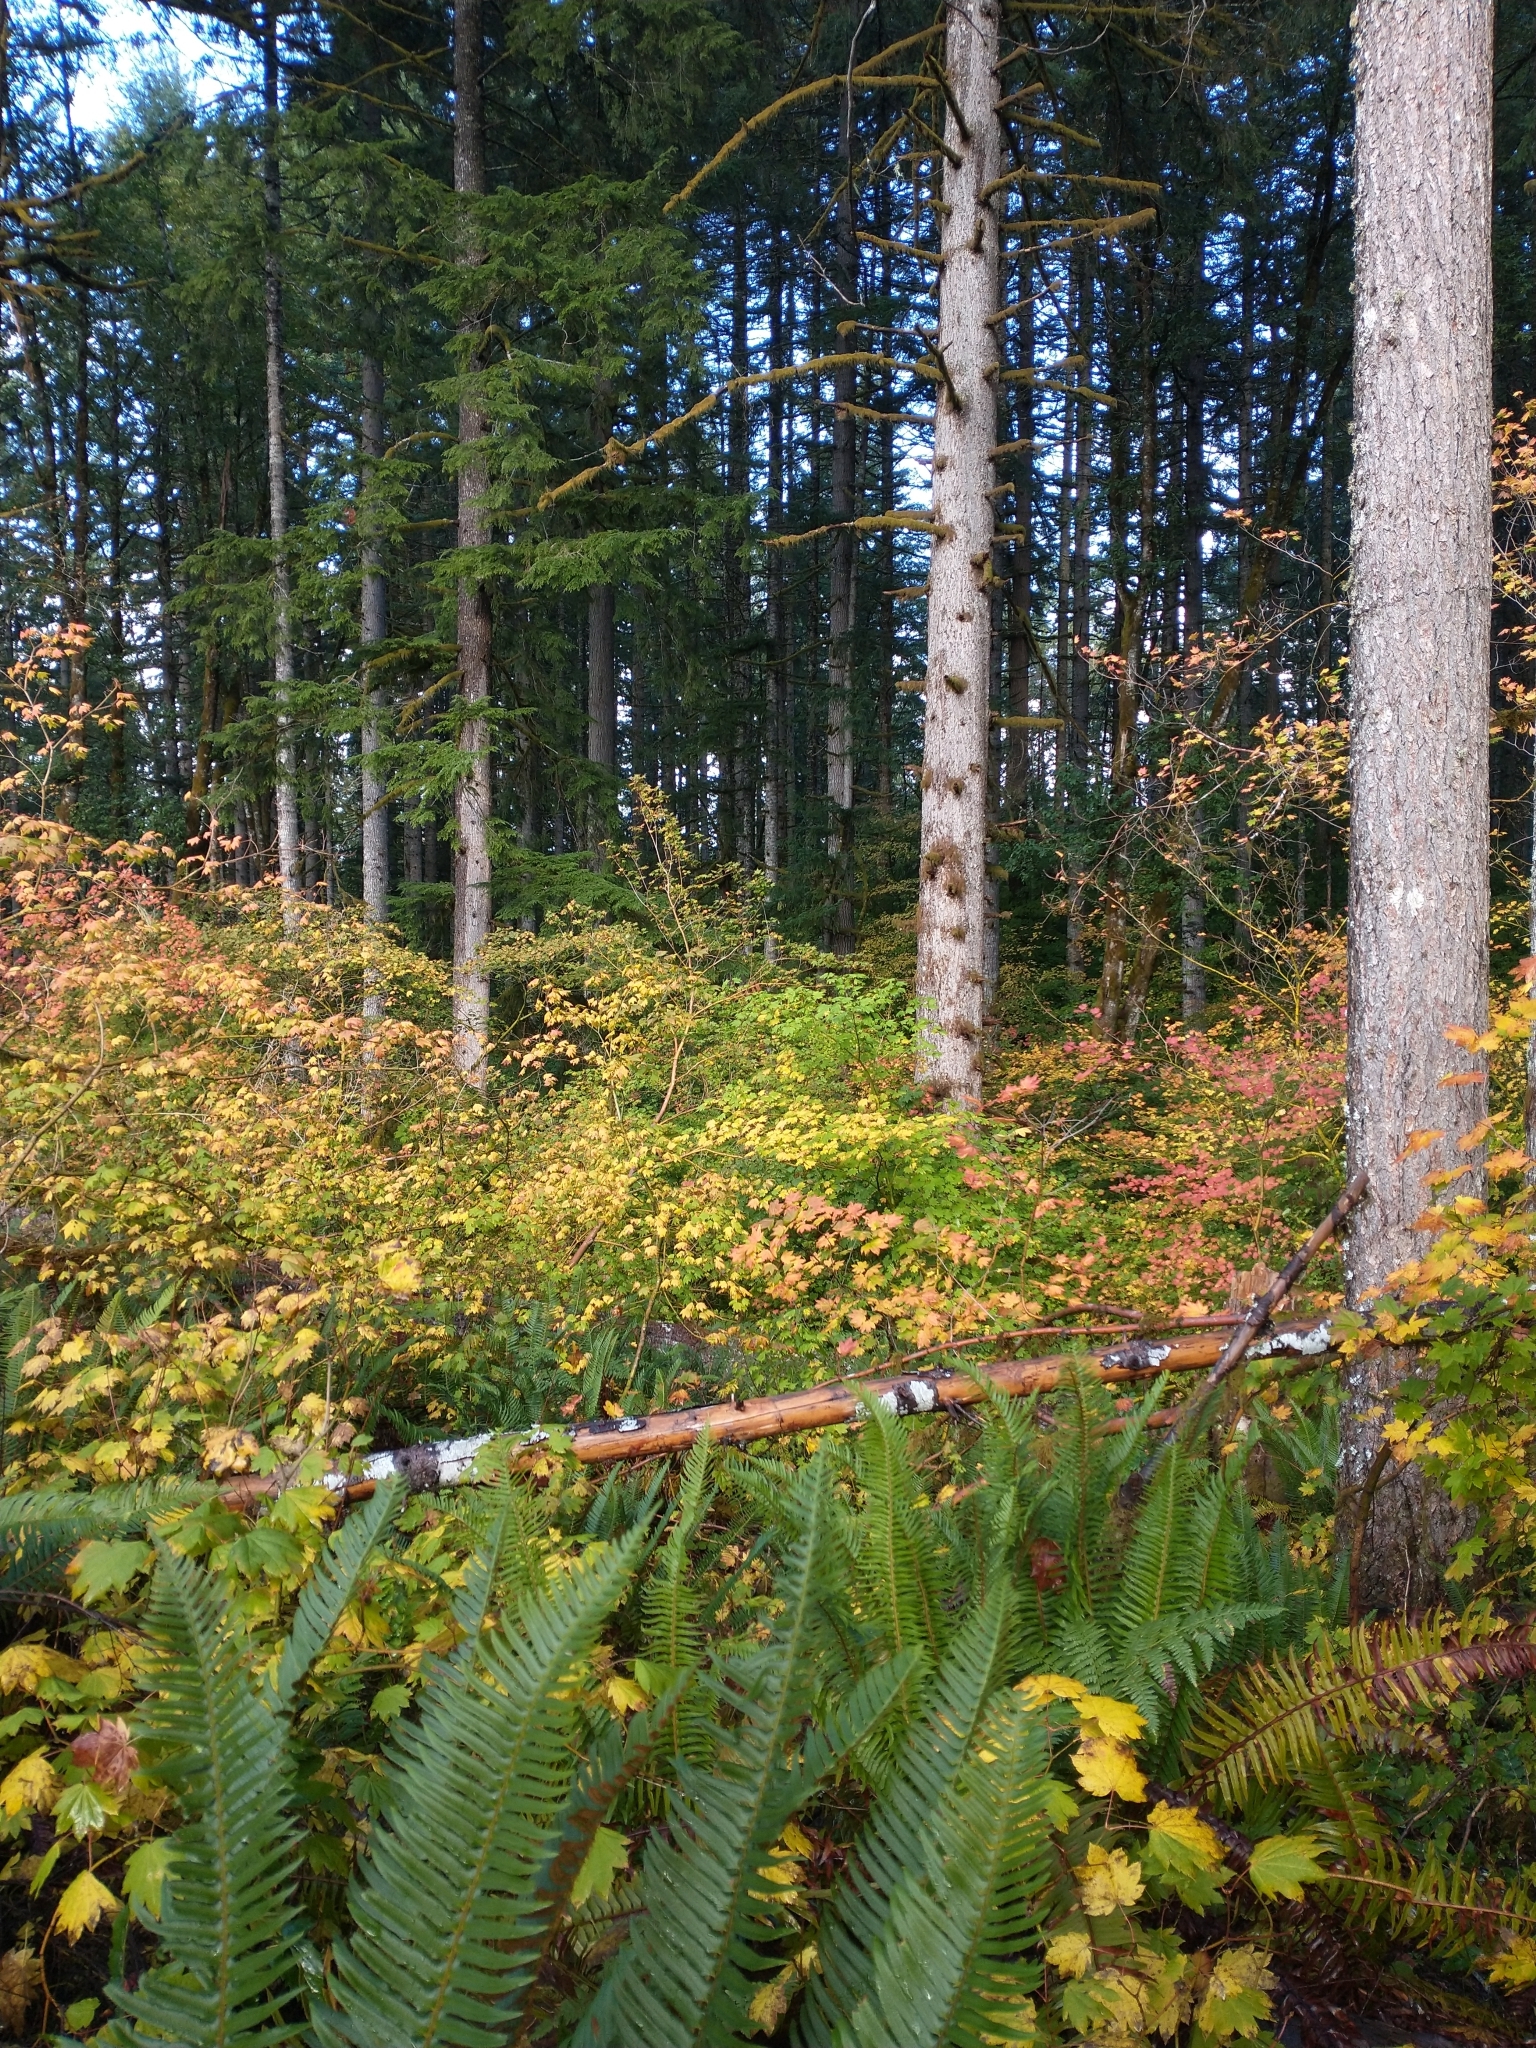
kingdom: Plantae
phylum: Tracheophyta
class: Pinopsida
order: Pinales
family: Pinaceae
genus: Tsuga
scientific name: Tsuga heterophylla
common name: Western hemlock
